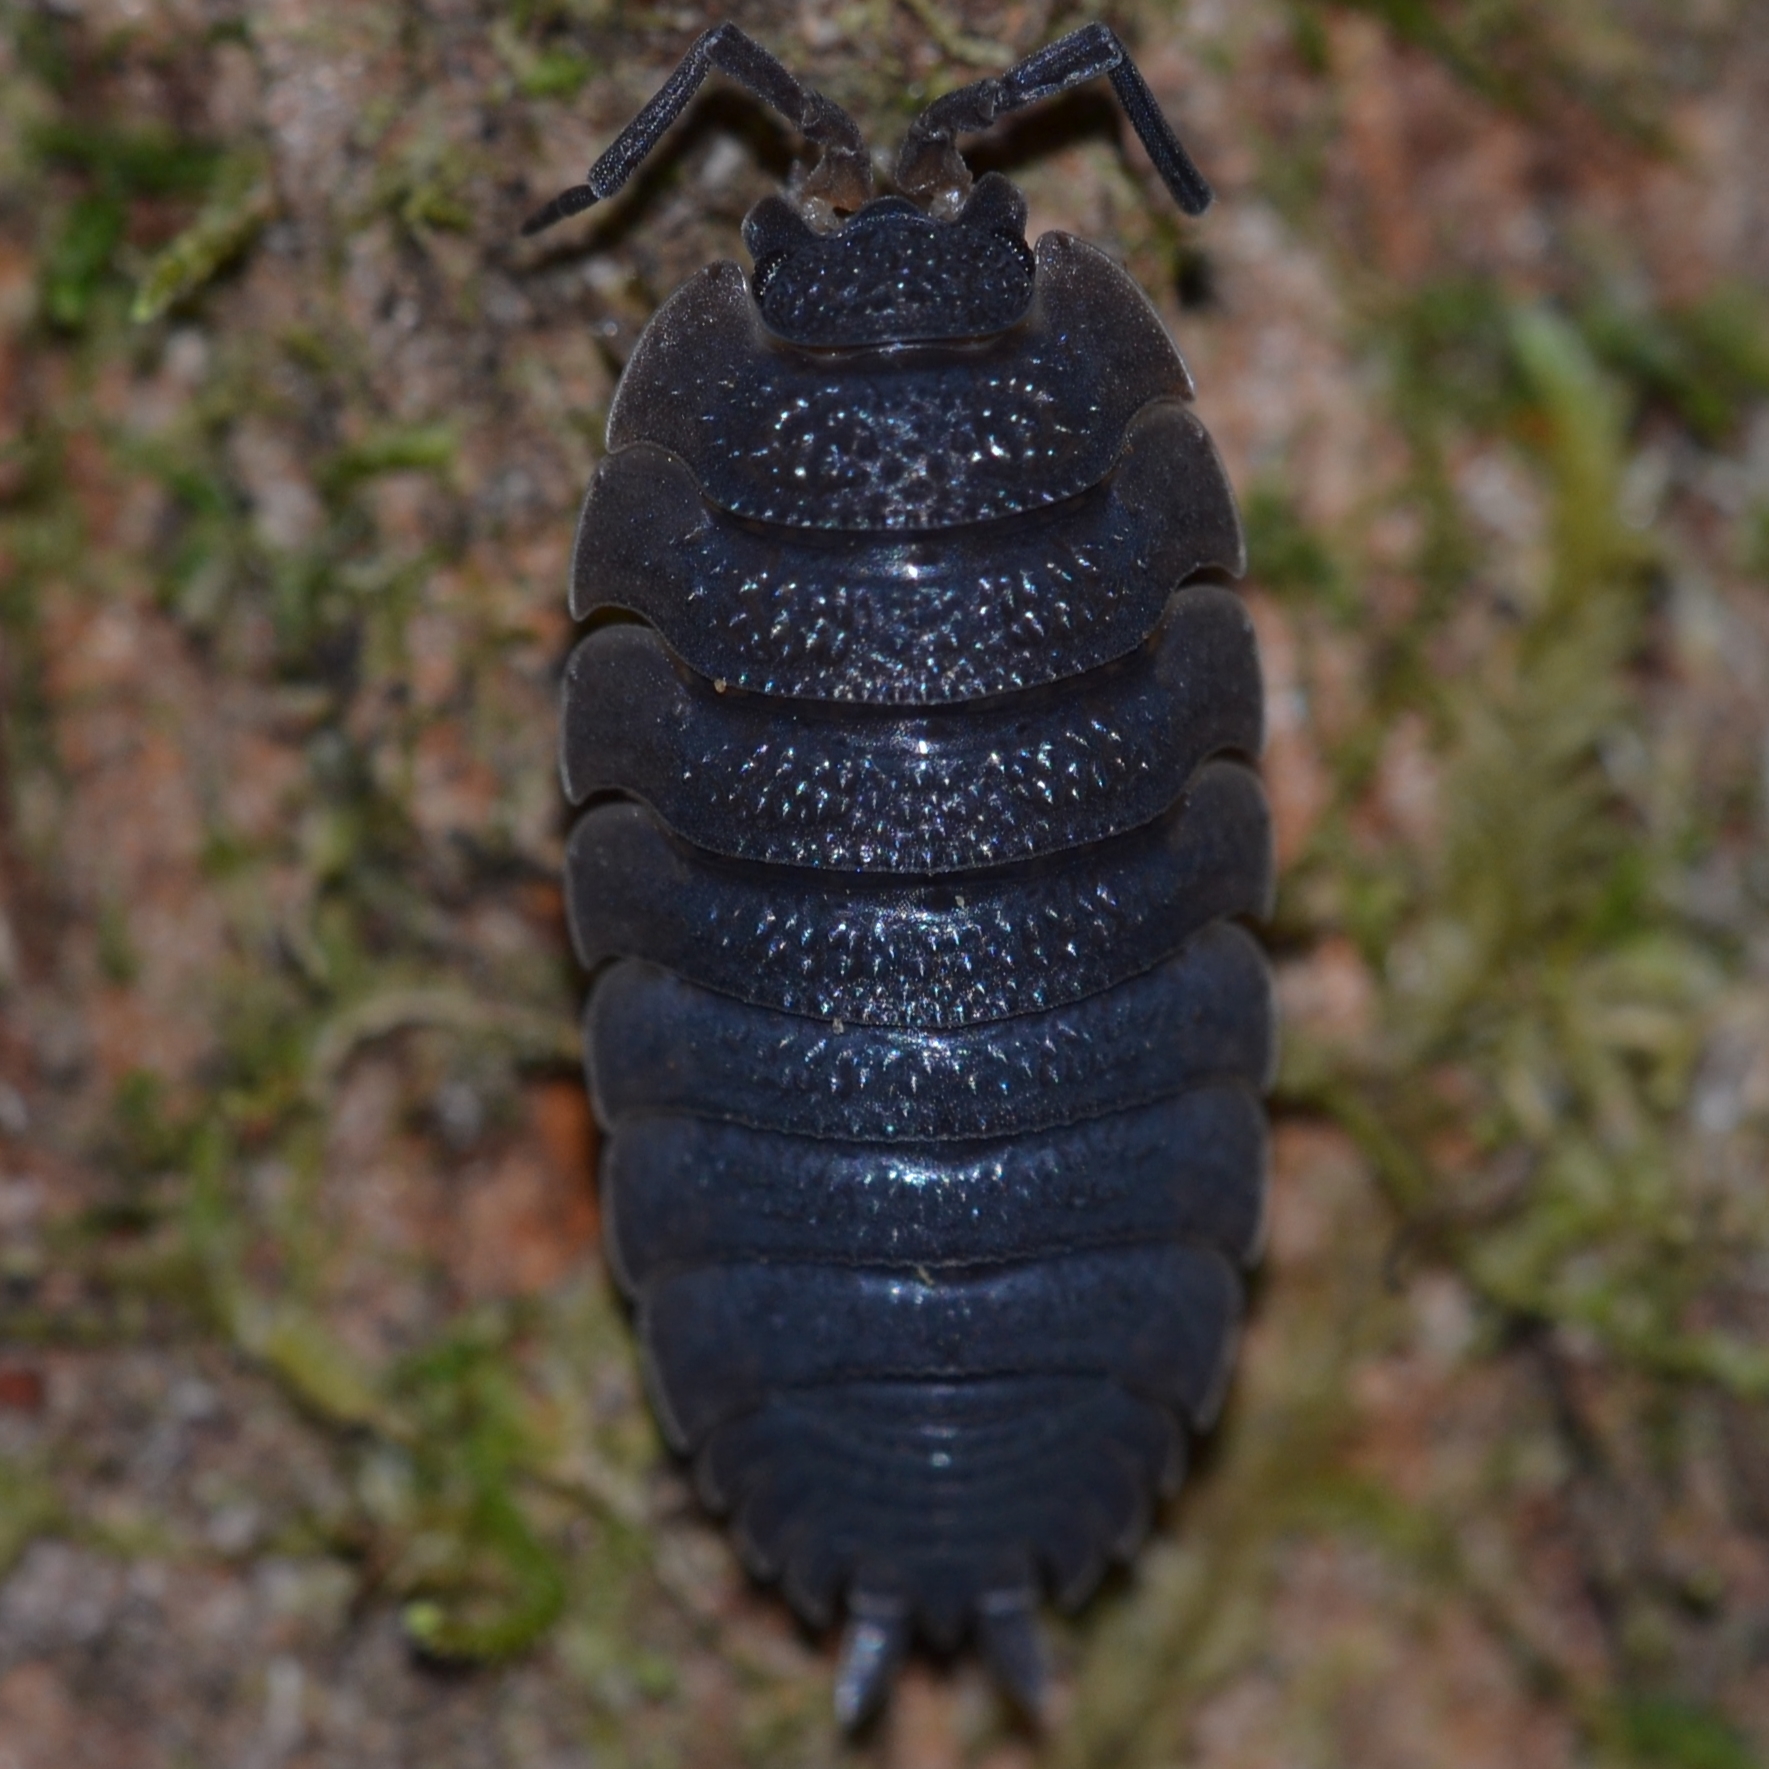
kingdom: Animalia
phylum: Arthropoda
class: Malacostraca
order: Isopoda
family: Porcellionidae
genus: Porcellio
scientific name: Porcellio scaber
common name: Common rough woodlouse
